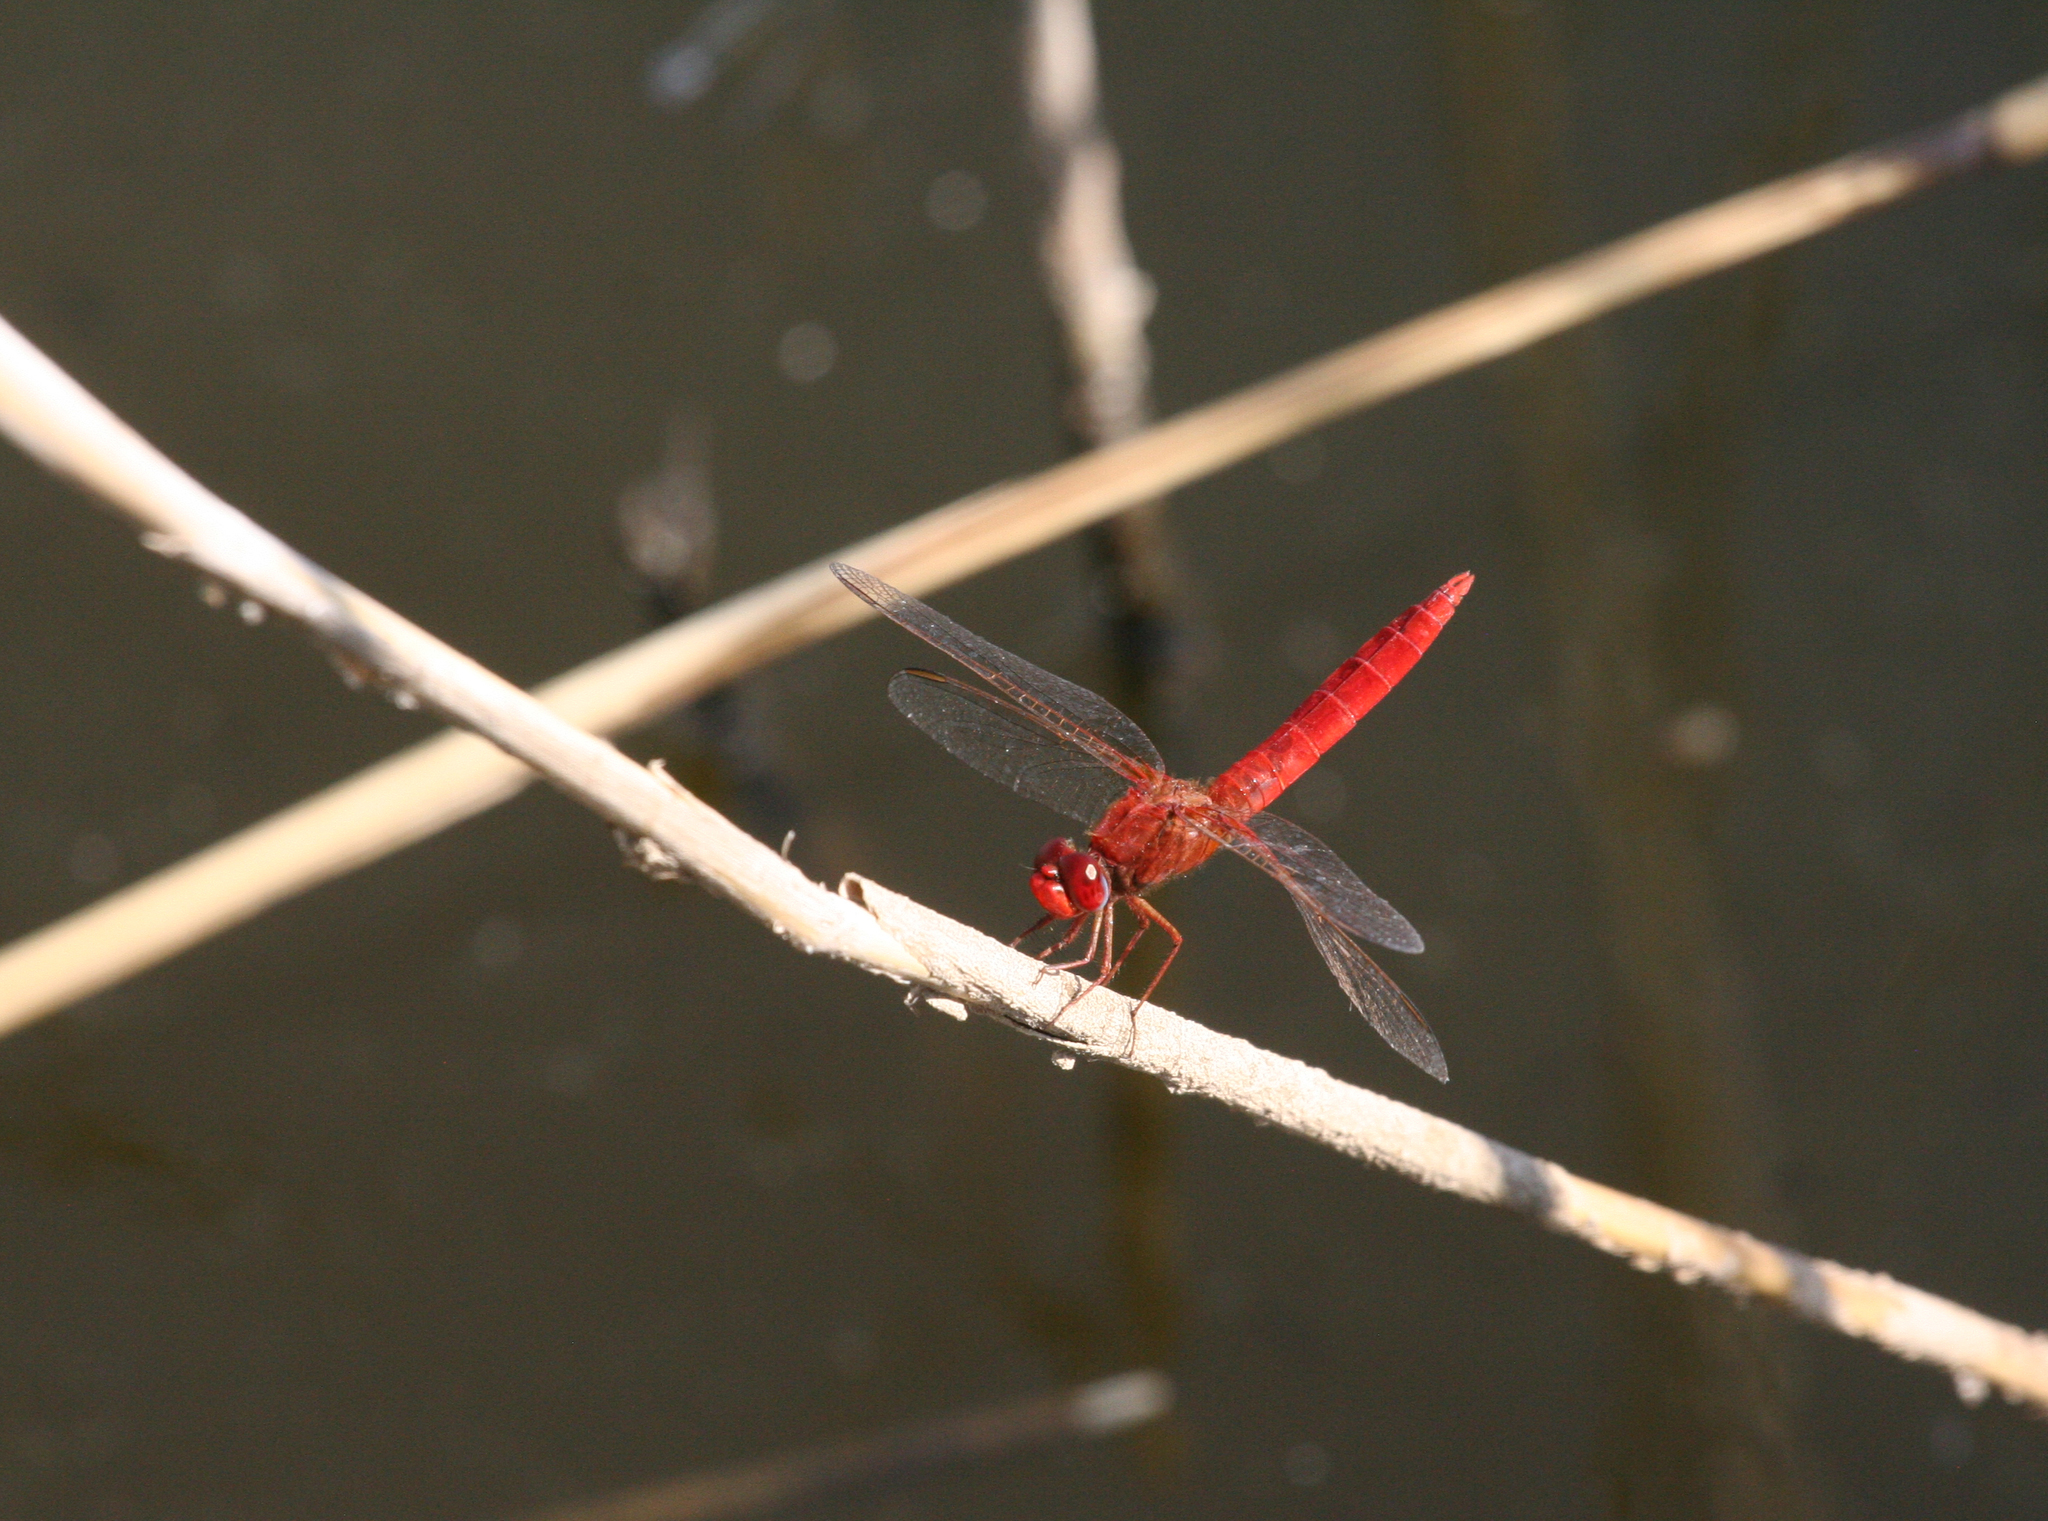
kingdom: Animalia
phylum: Arthropoda
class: Insecta
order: Odonata
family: Libellulidae
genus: Crocothemis
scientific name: Crocothemis erythraea
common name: Scarlet dragonfly
